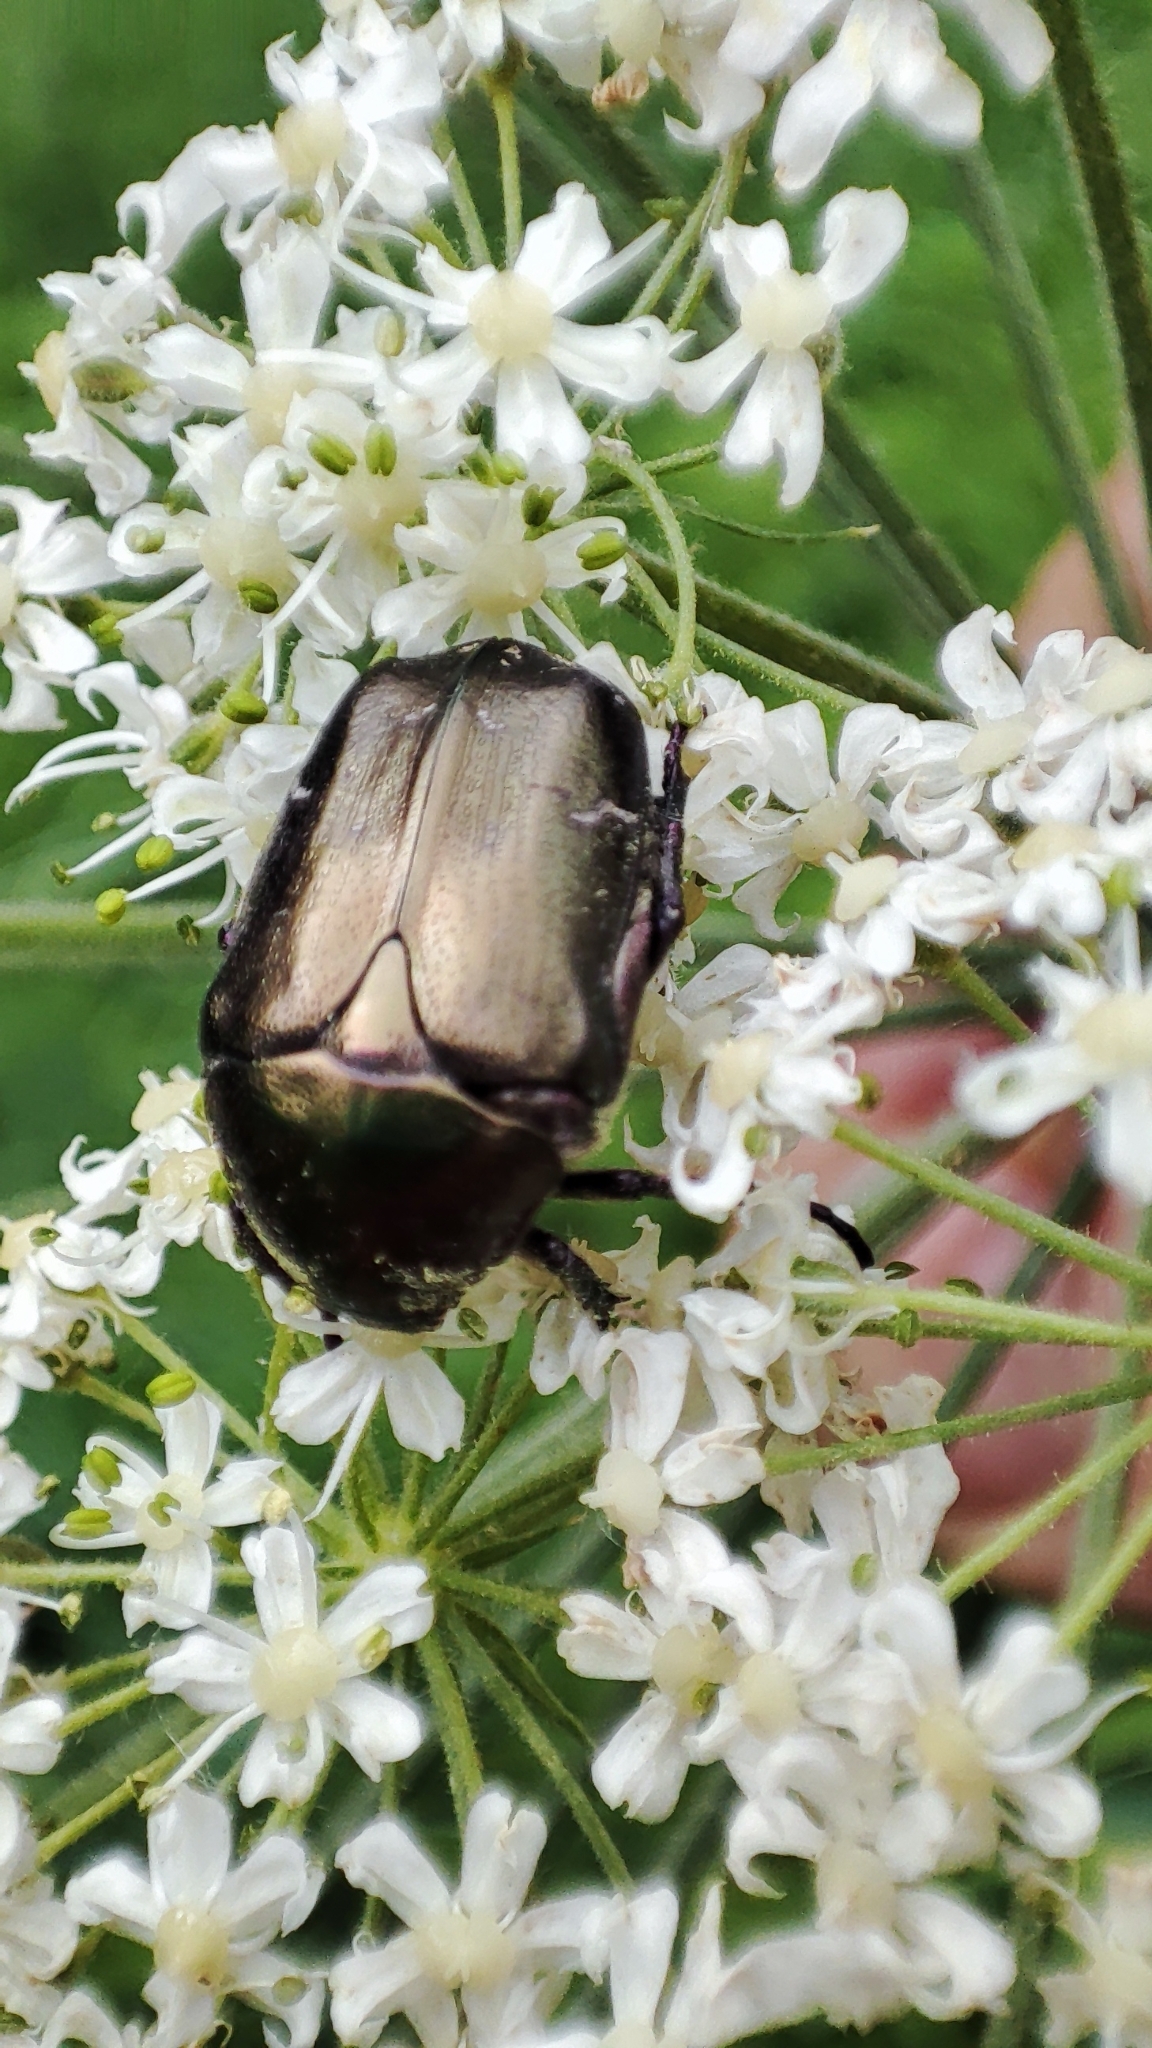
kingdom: Animalia
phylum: Arthropoda
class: Insecta
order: Coleoptera
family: Scarabaeidae
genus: Protaetia
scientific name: Protaetia cuprea
